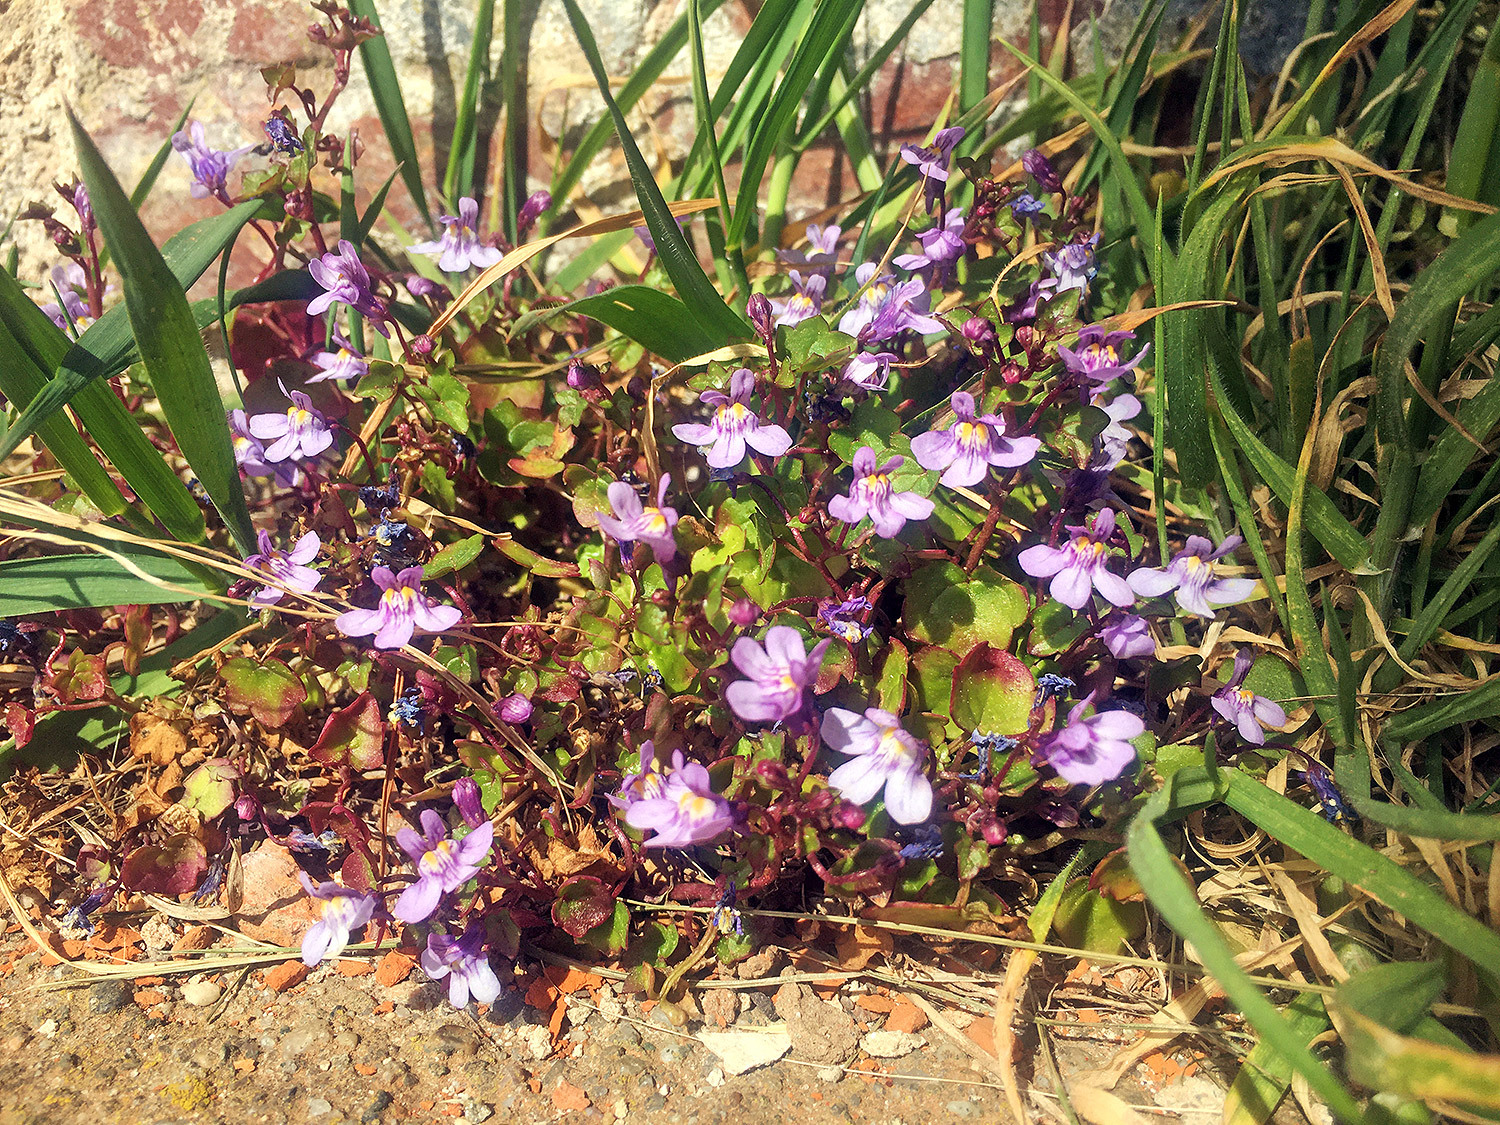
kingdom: Plantae
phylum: Tracheophyta
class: Magnoliopsida
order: Lamiales
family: Plantaginaceae
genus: Cymbalaria
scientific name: Cymbalaria muralis
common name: Ivy-leaved toadflax
